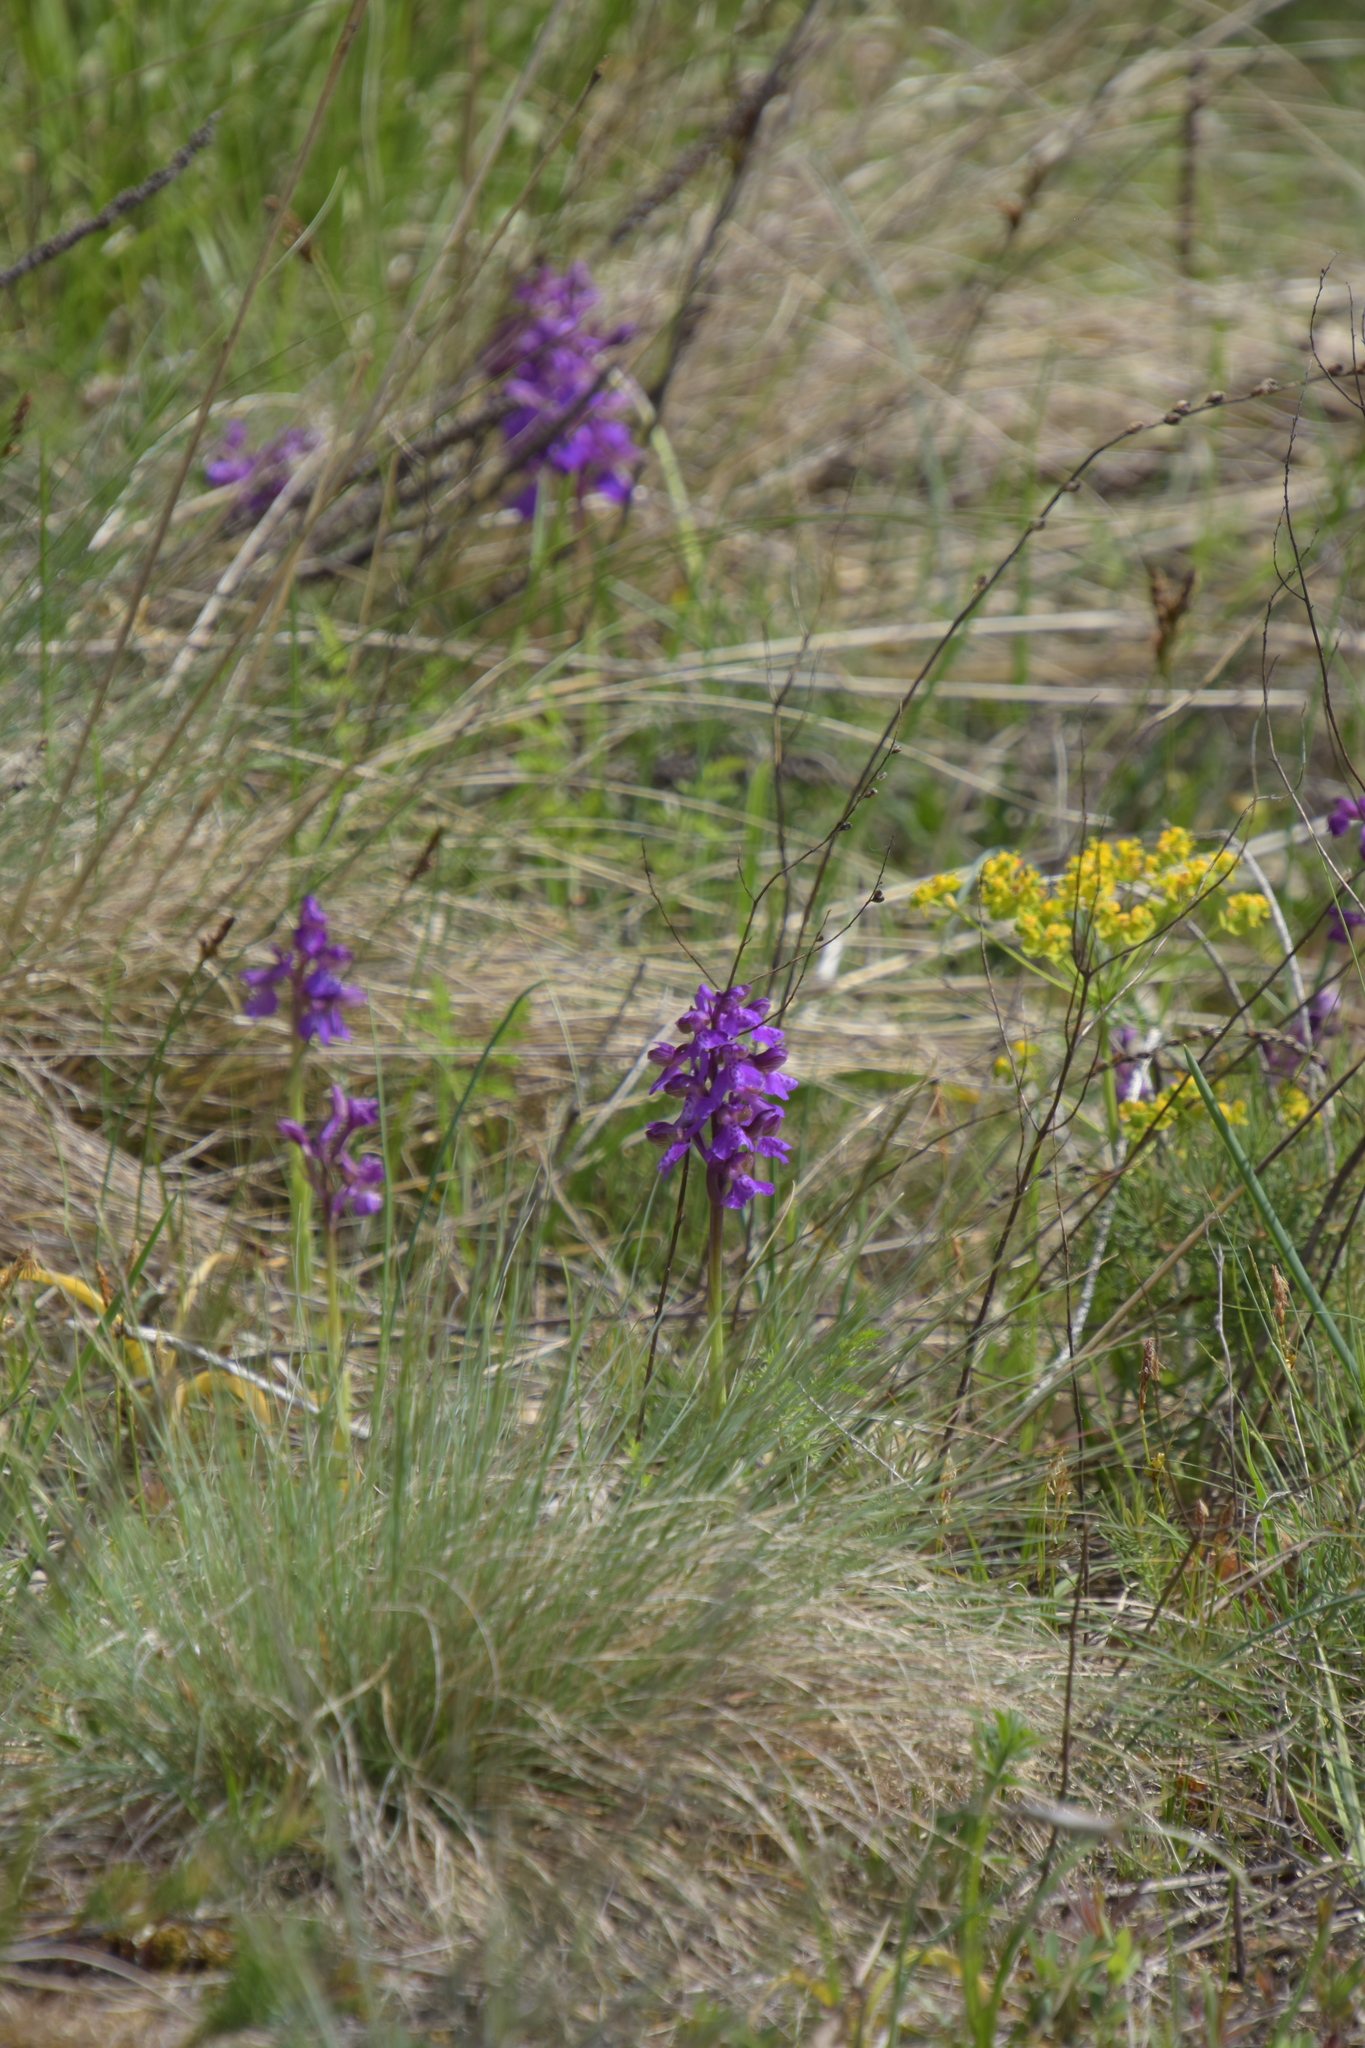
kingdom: Plantae
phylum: Tracheophyta
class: Liliopsida
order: Asparagales
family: Orchidaceae
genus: Anacamptis
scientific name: Anacamptis morio
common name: Green-winged orchid
